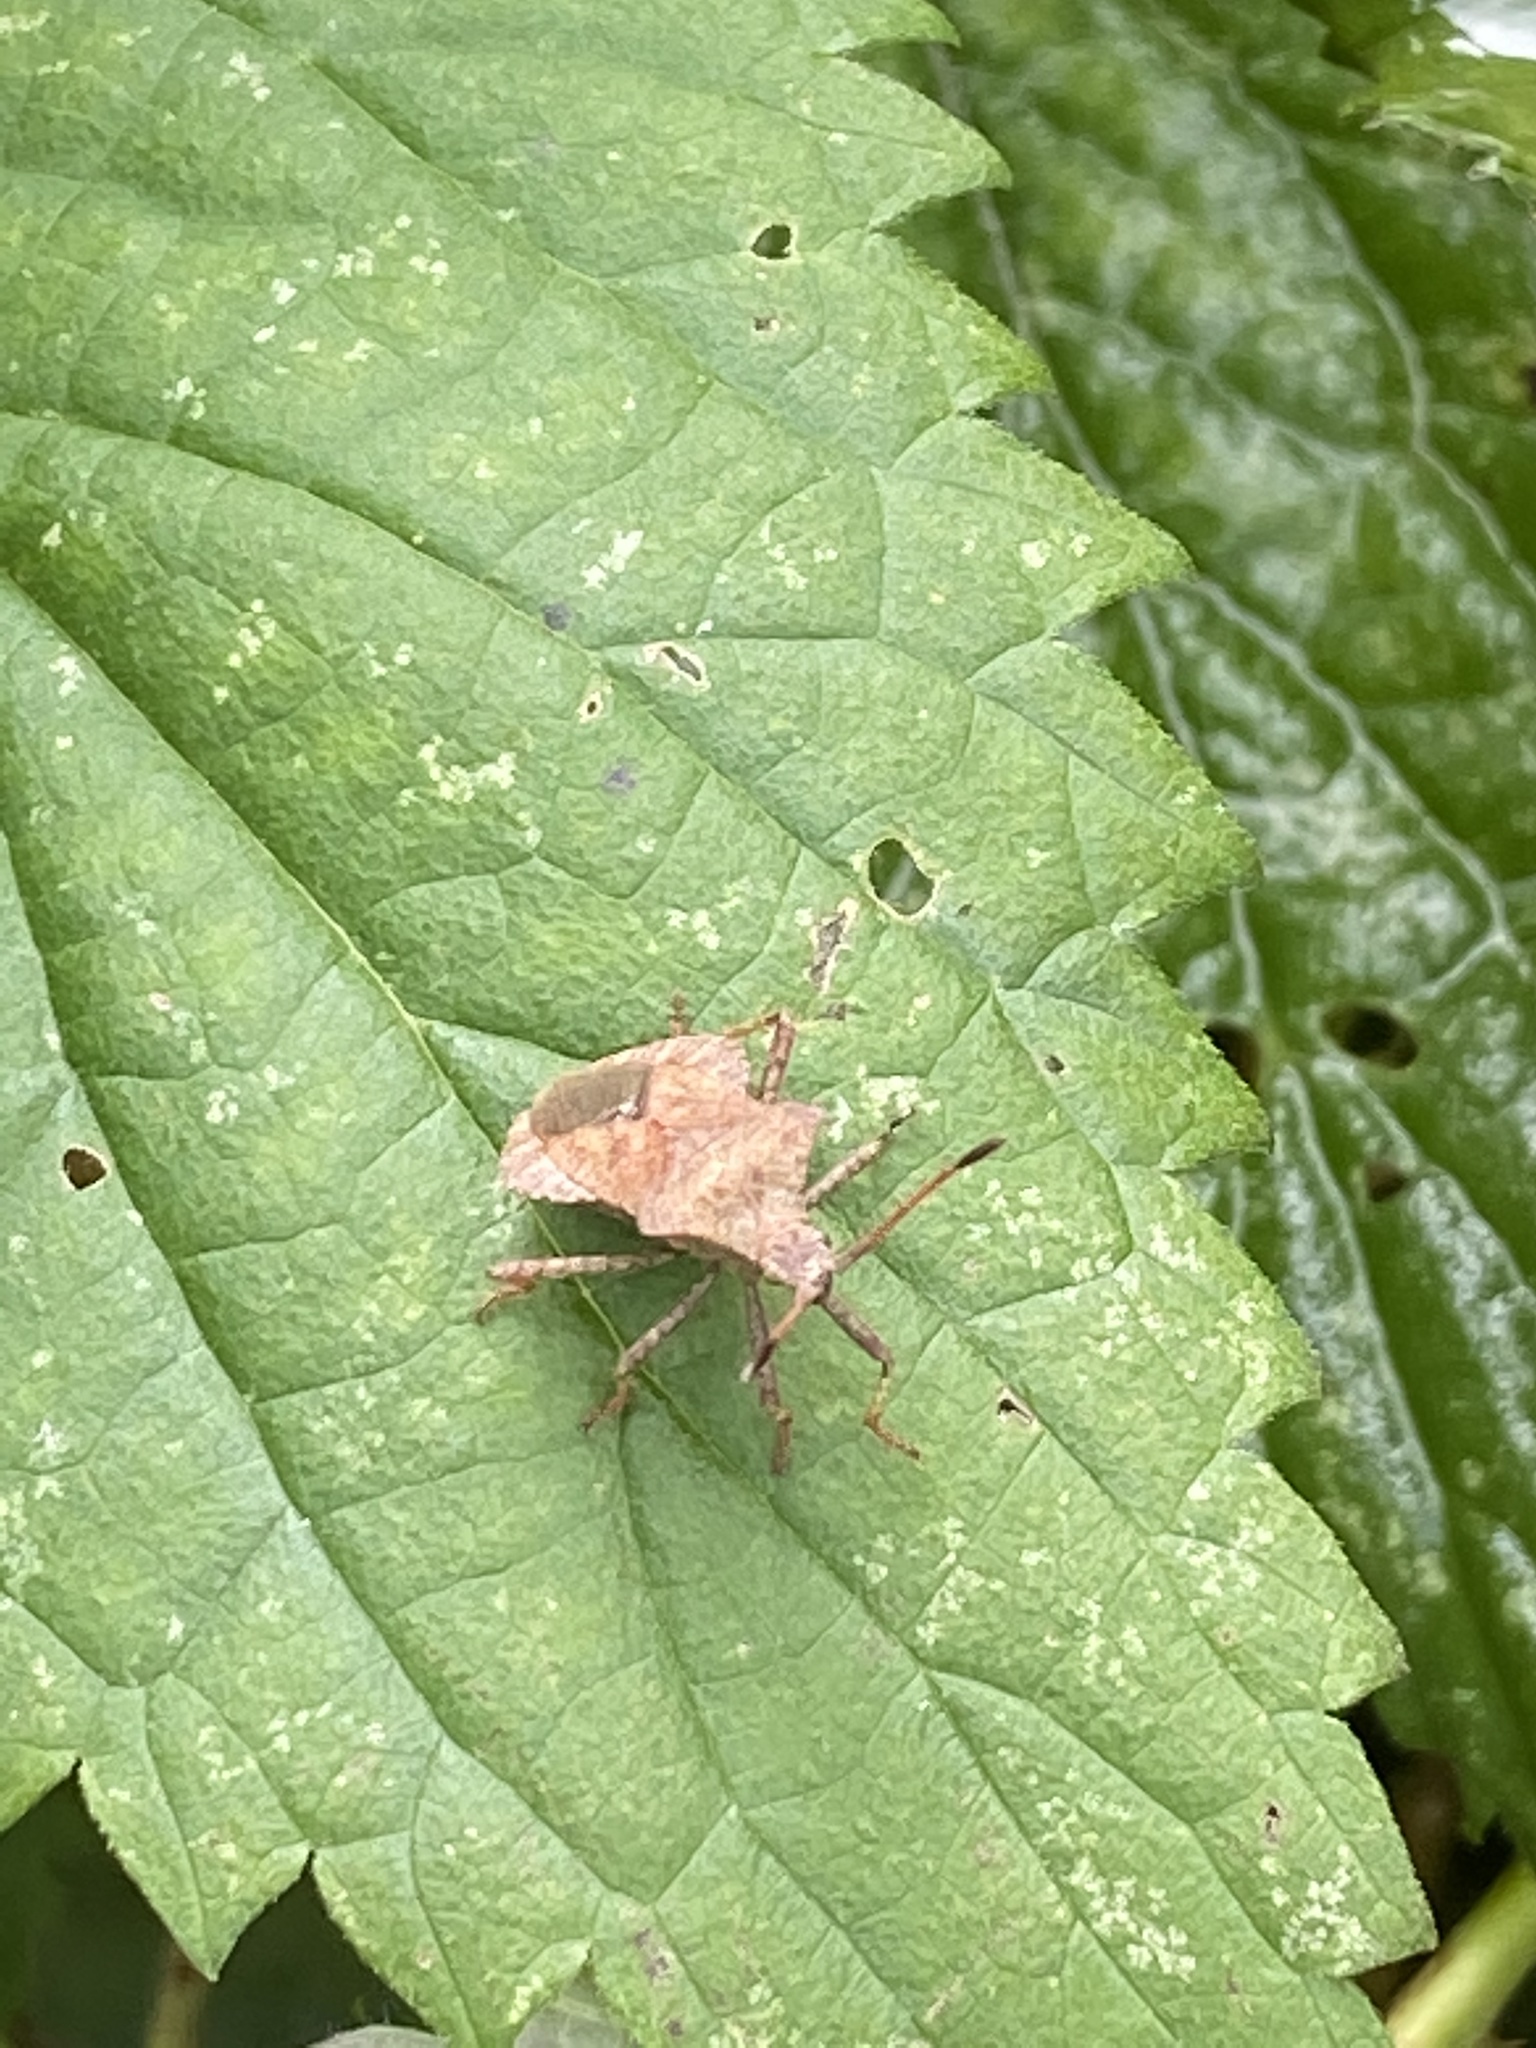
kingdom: Animalia
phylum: Arthropoda
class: Insecta
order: Hemiptera
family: Coreidae
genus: Coreus
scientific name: Coreus marginatus
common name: Dock bug
